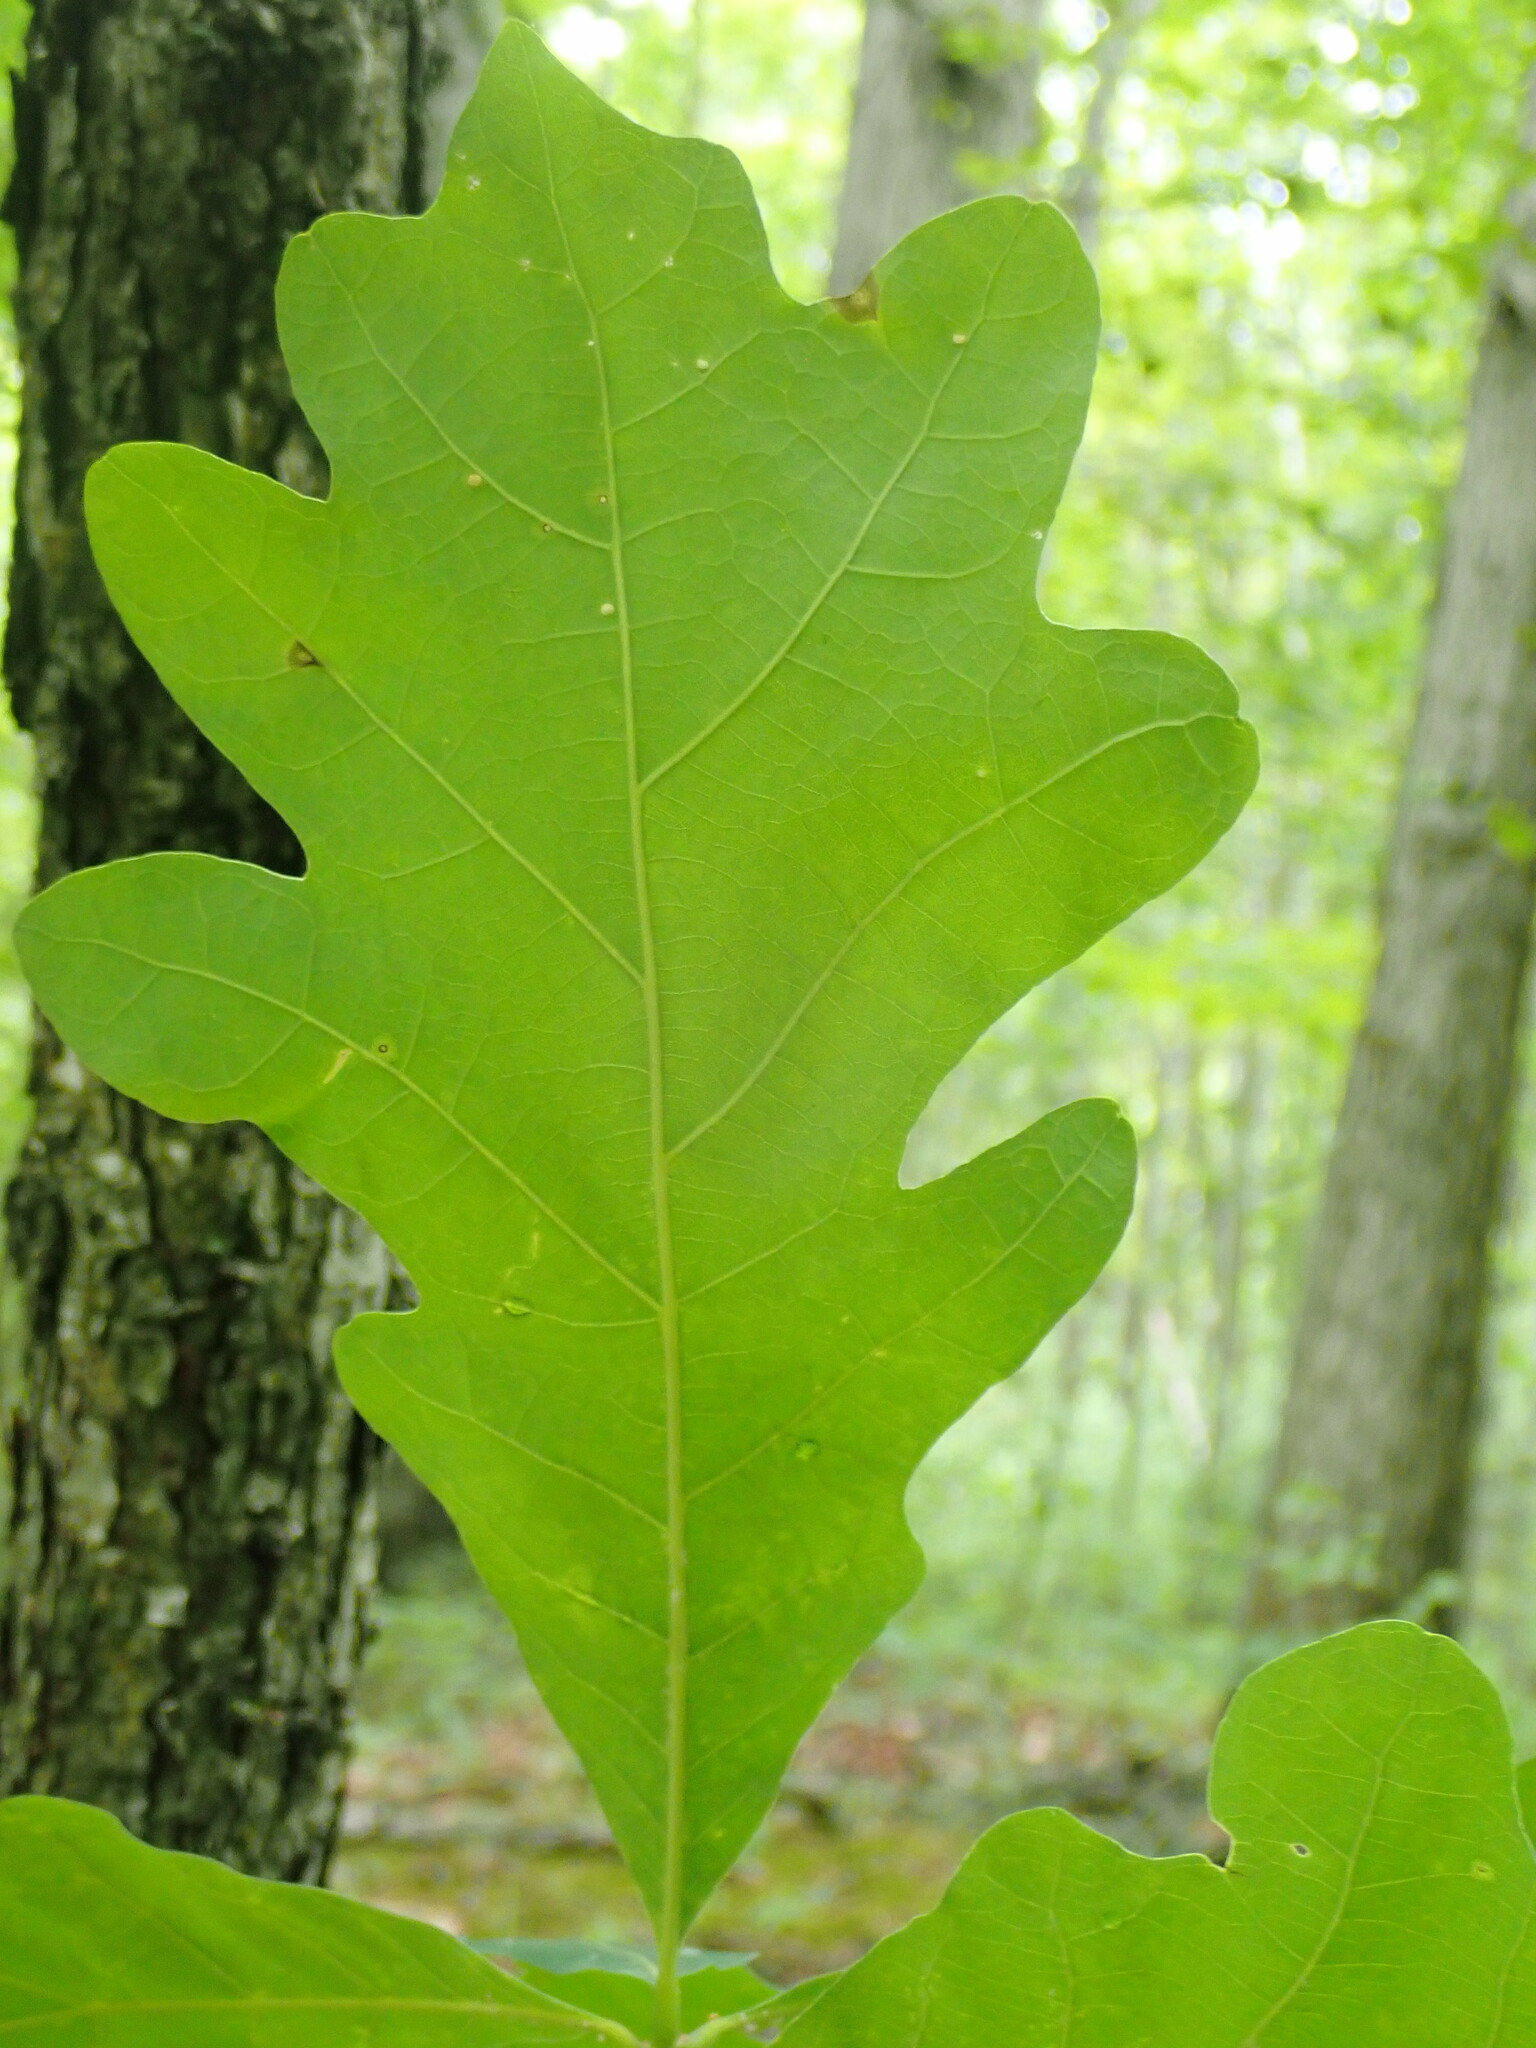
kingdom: Plantae
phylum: Tracheophyta
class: Magnoliopsida
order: Fagales
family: Fagaceae
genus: Quercus
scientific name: Quercus alba
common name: White oak
